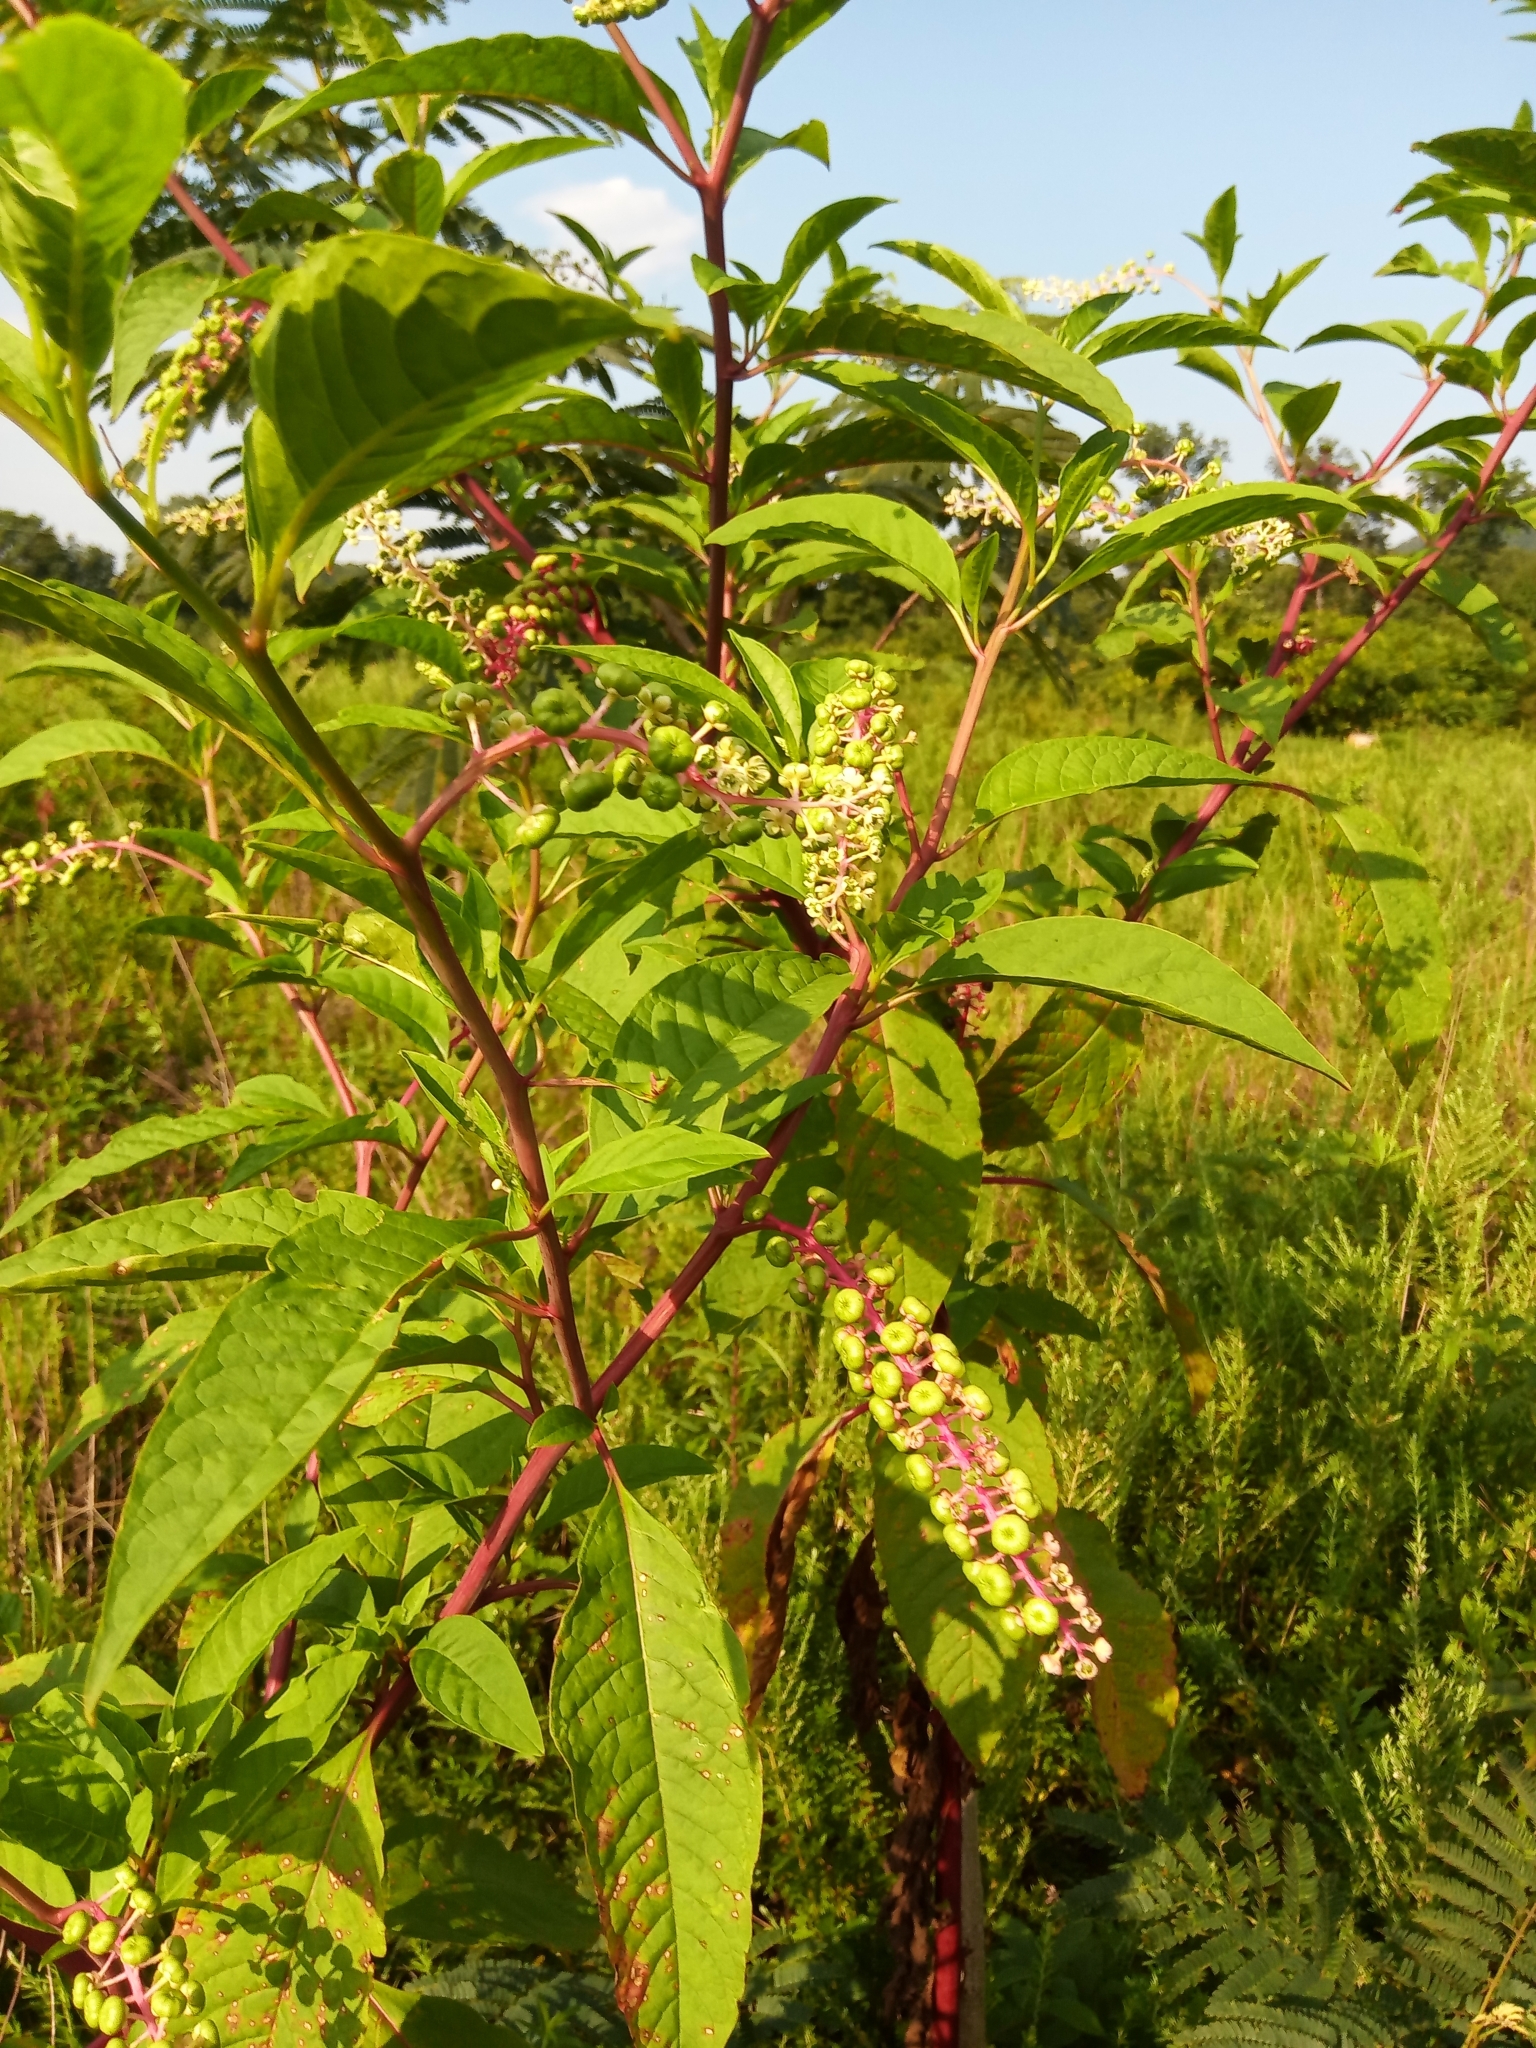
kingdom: Plantae
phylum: Tracheophyta
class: Magnoliopsida
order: Caryophyllales
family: Phytolaccaceae
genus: Phytolacca
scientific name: Phytolacca americana
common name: American pokeweed
